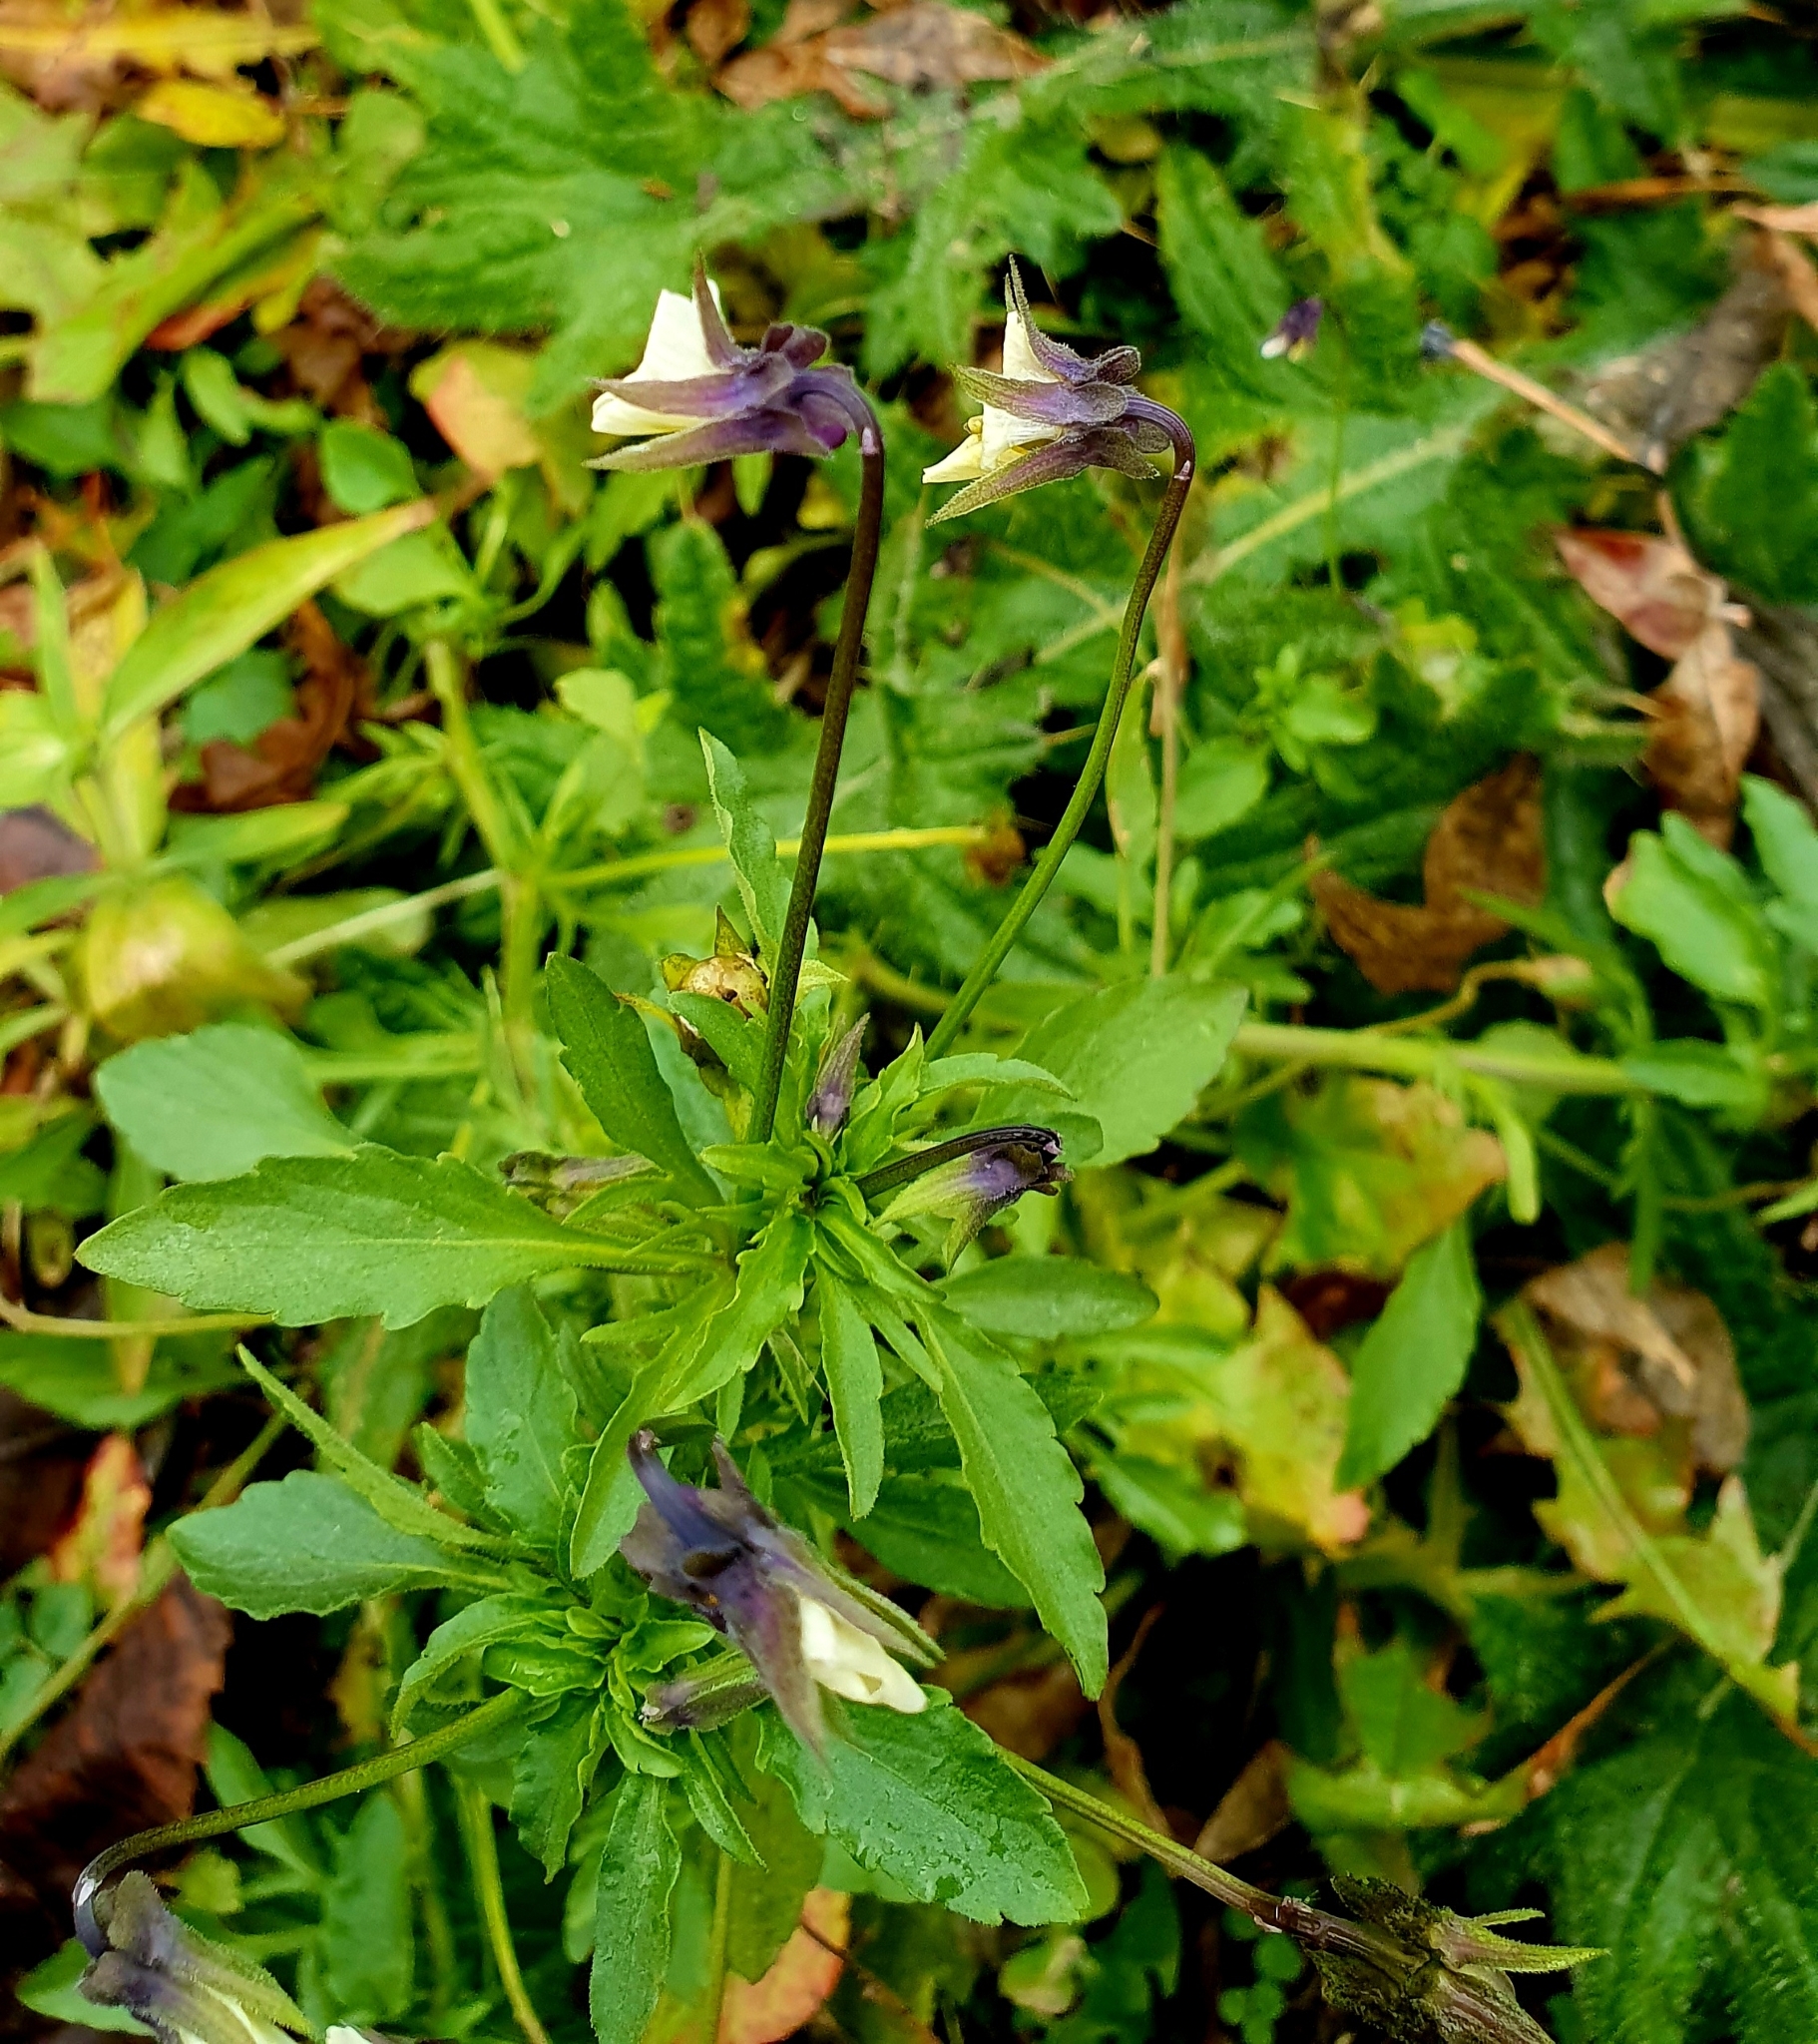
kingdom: Plantae
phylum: Tracheophyta
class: Magnoliopsida
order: Malpighiales
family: Violaceae
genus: Viola
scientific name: Viola arvensis
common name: Field pansy
